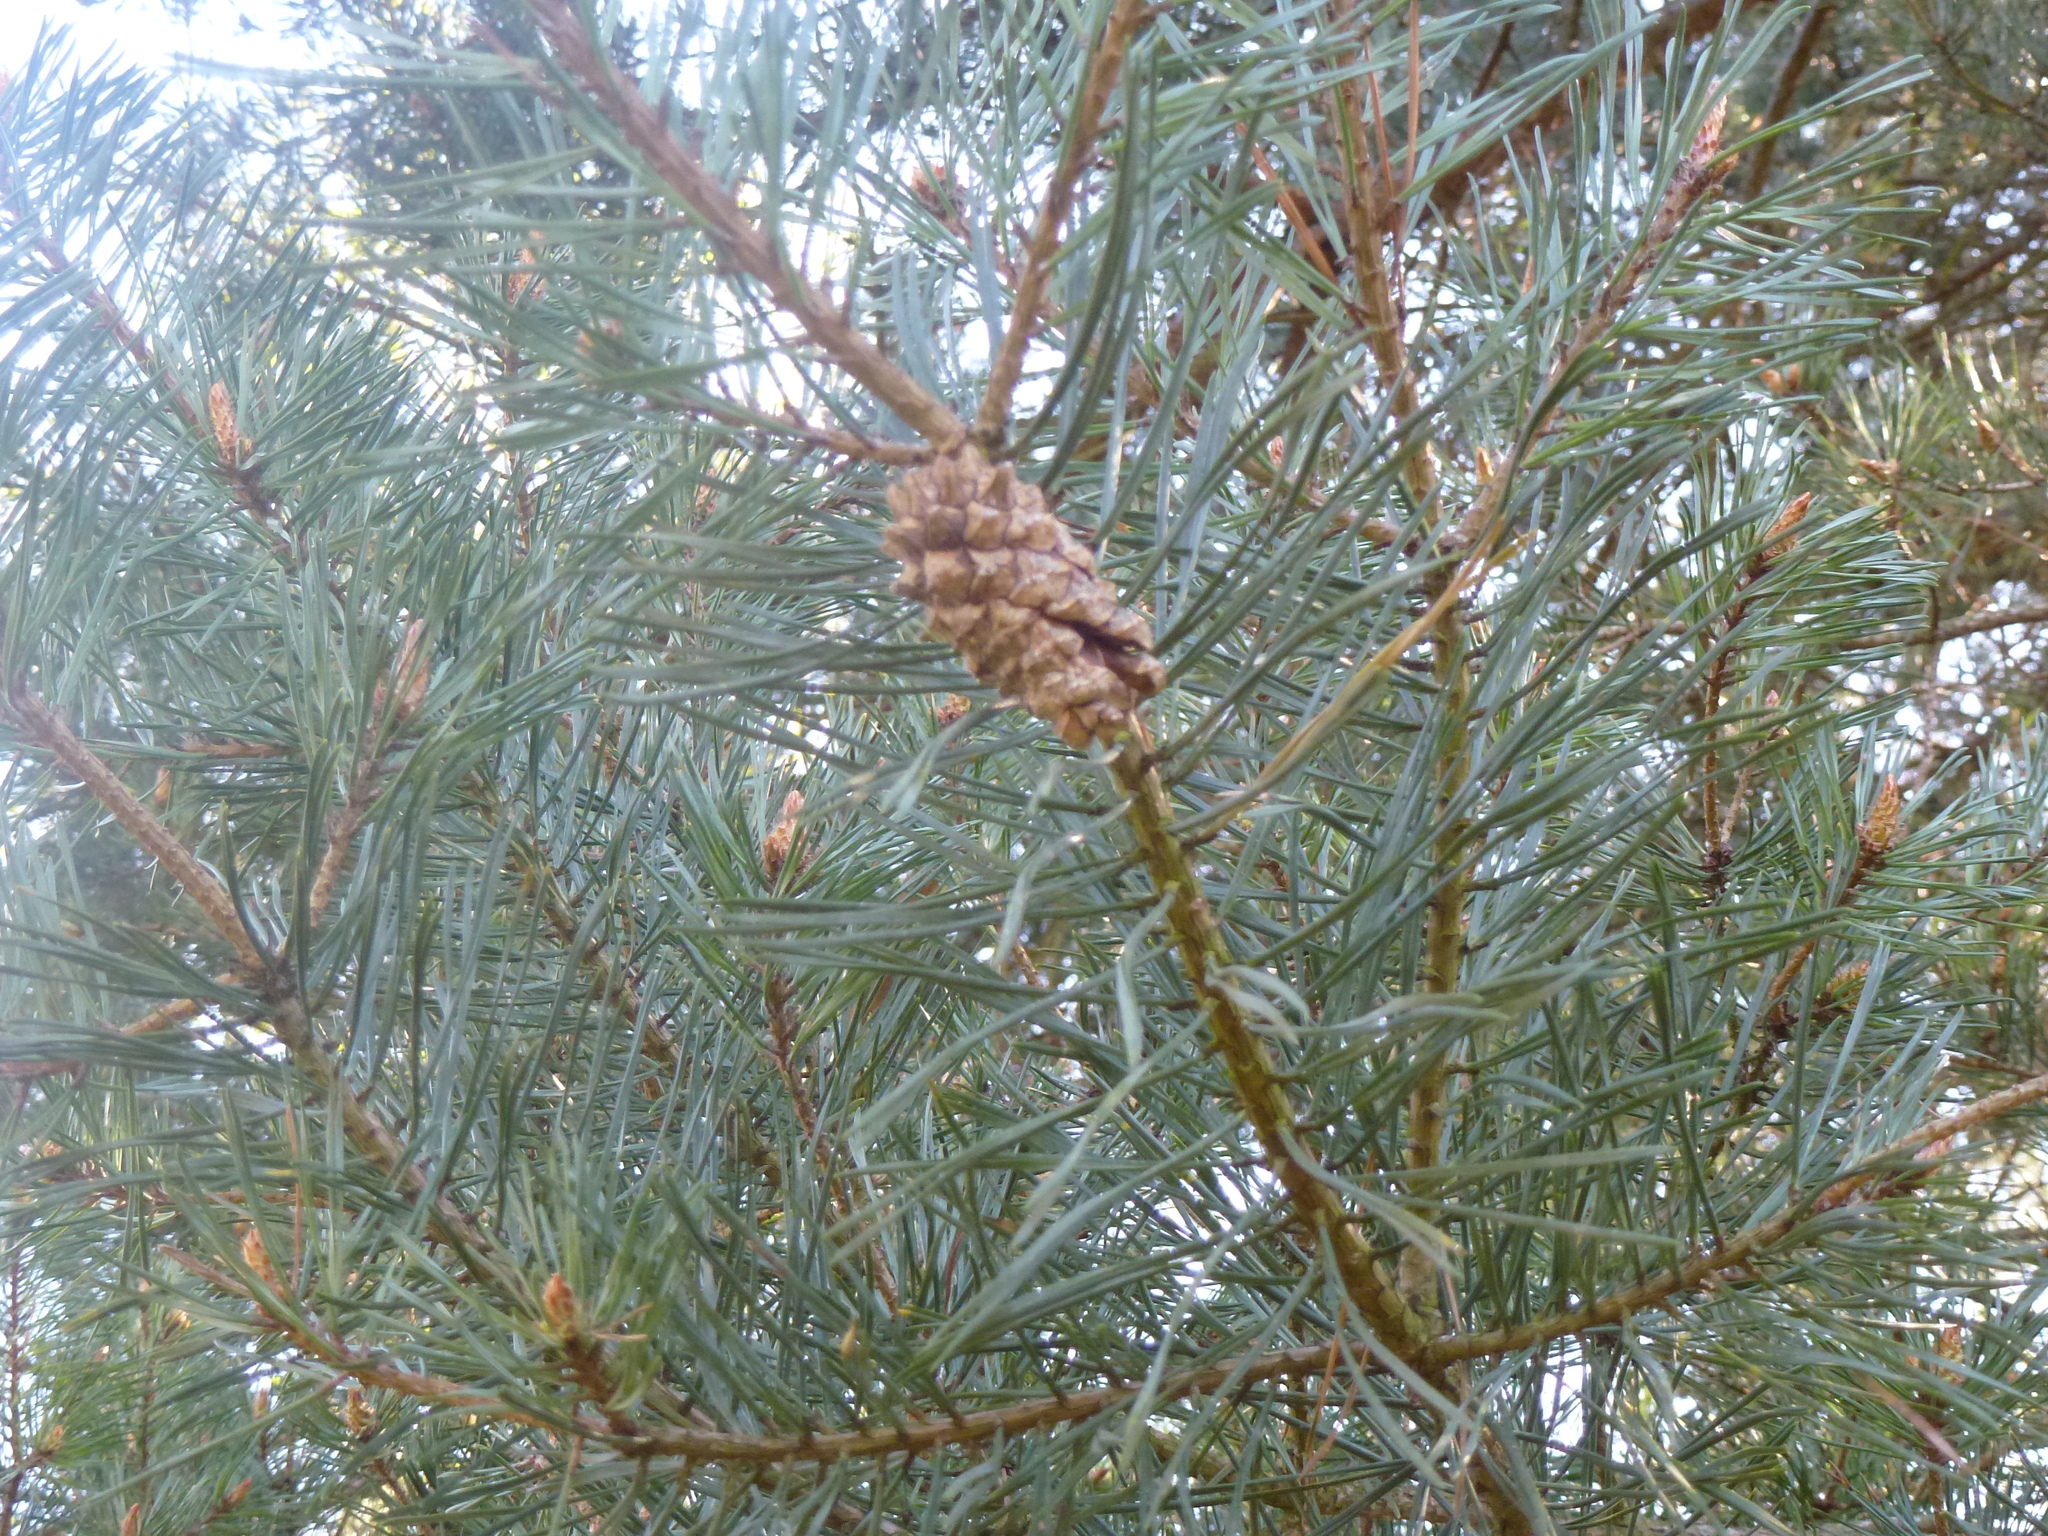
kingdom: Plantae
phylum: Tracheophyta
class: Pinopsida
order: Pinales
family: Pinaceae
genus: Pinus
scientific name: Pinus sylvestris
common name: Scots pine
